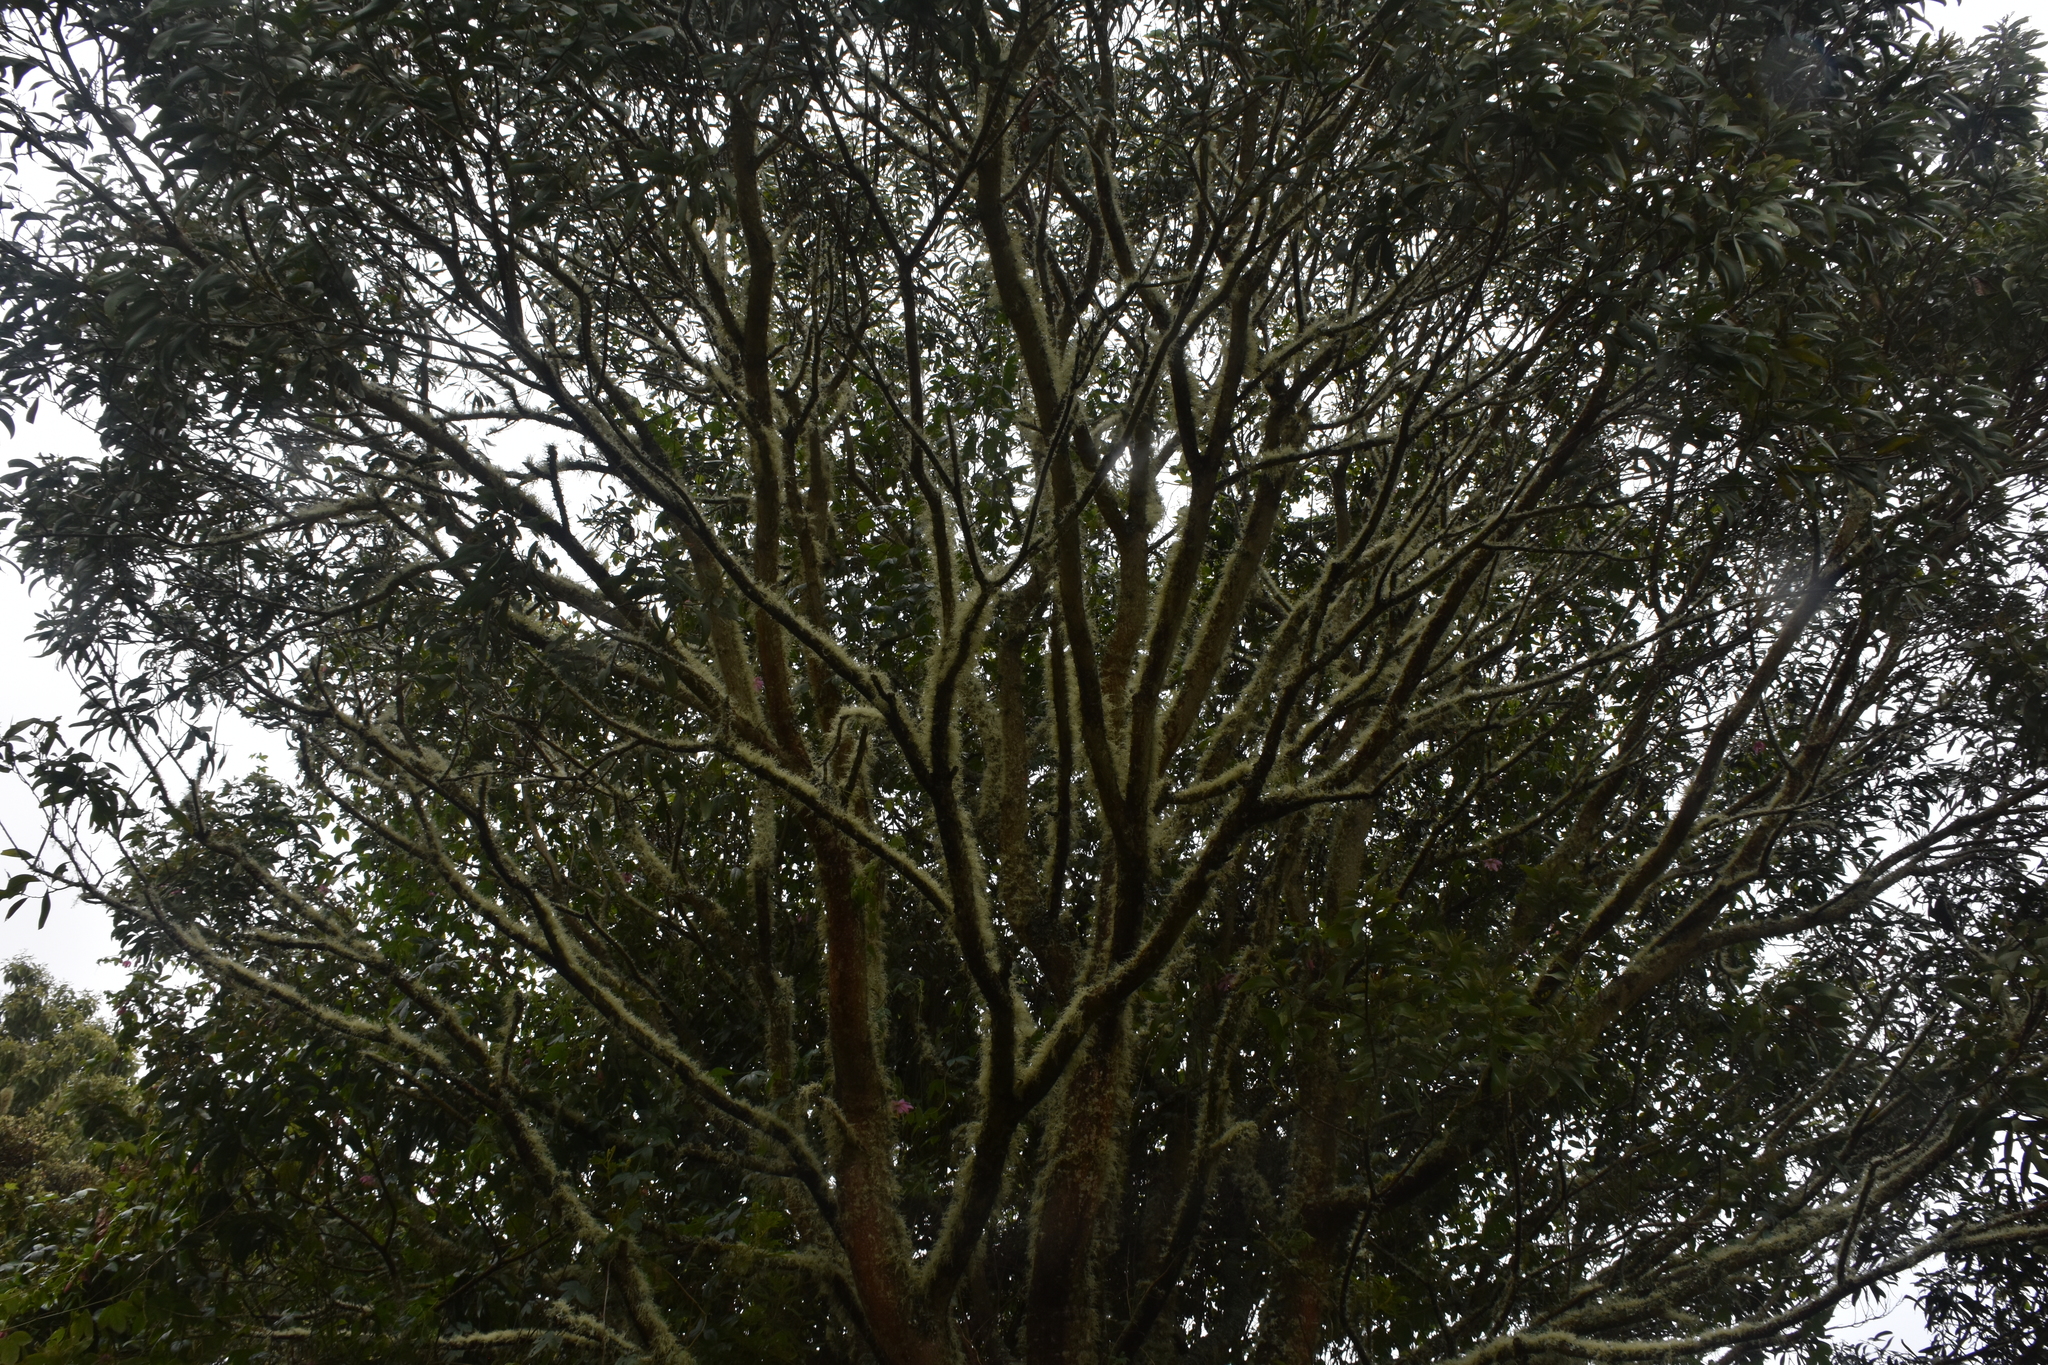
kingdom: Plantae
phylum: Tracheophyta
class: Magnoliopsida
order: Fabales
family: Fabaceae
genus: Acacia
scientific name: Acacia koa
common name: Gray koa
